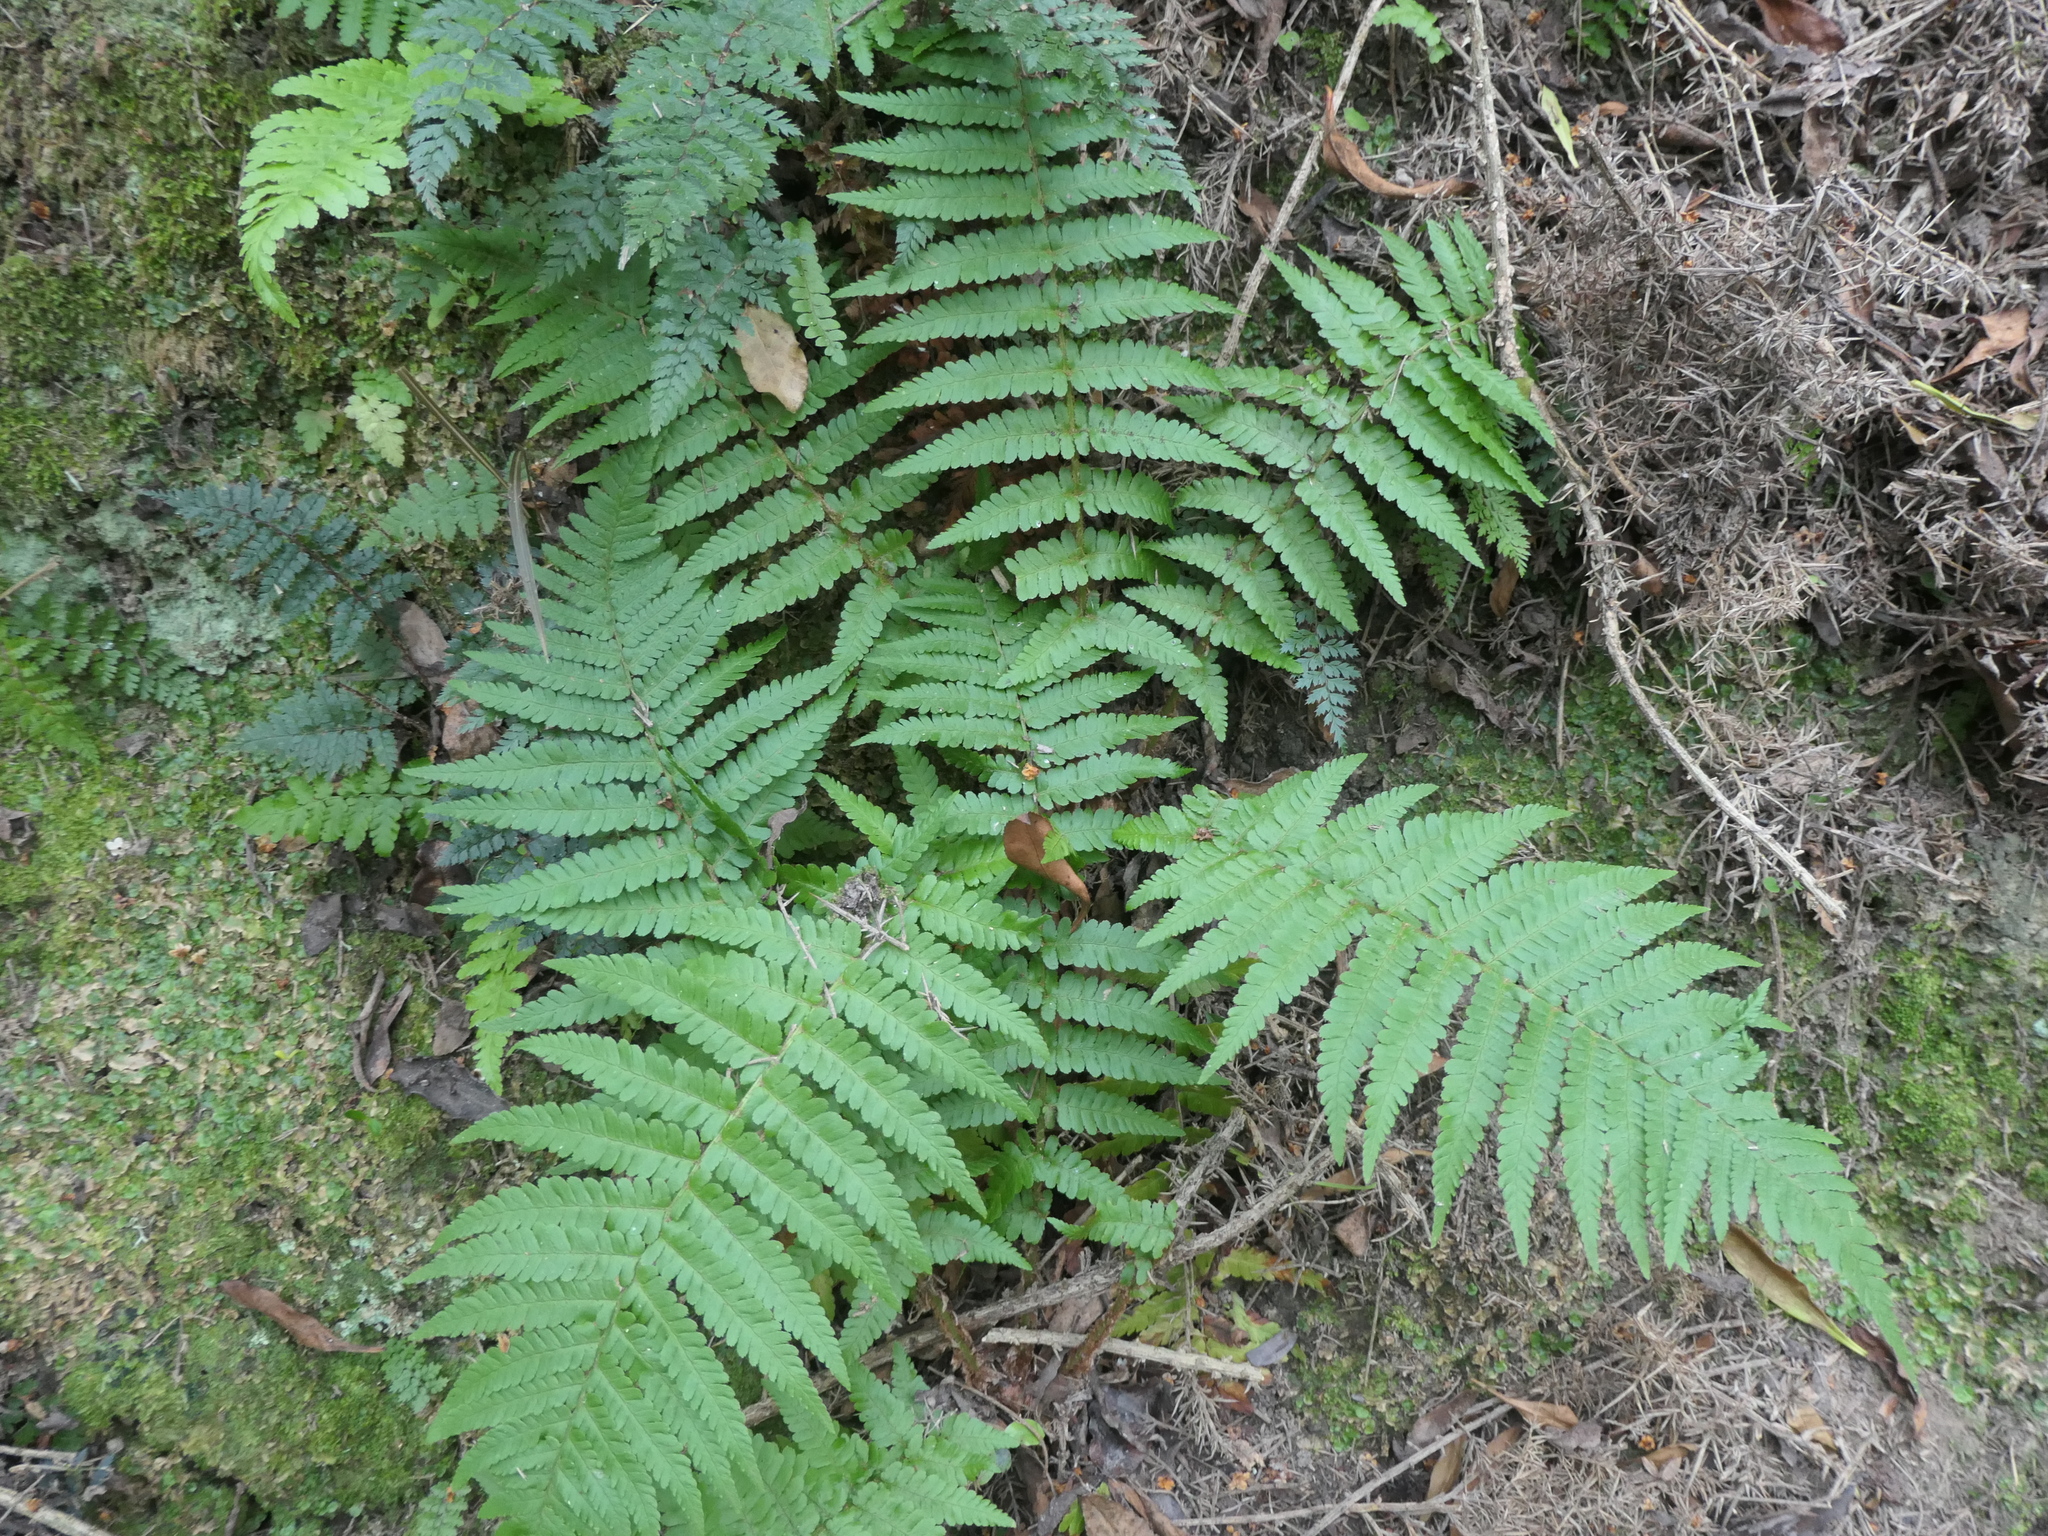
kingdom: Plantae
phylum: Tracheophyta
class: Polypodiopsida
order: Polypodiales
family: Dryopteridaceae
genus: Dryopteris
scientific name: Dryopteris filix-mas
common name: Male fern
